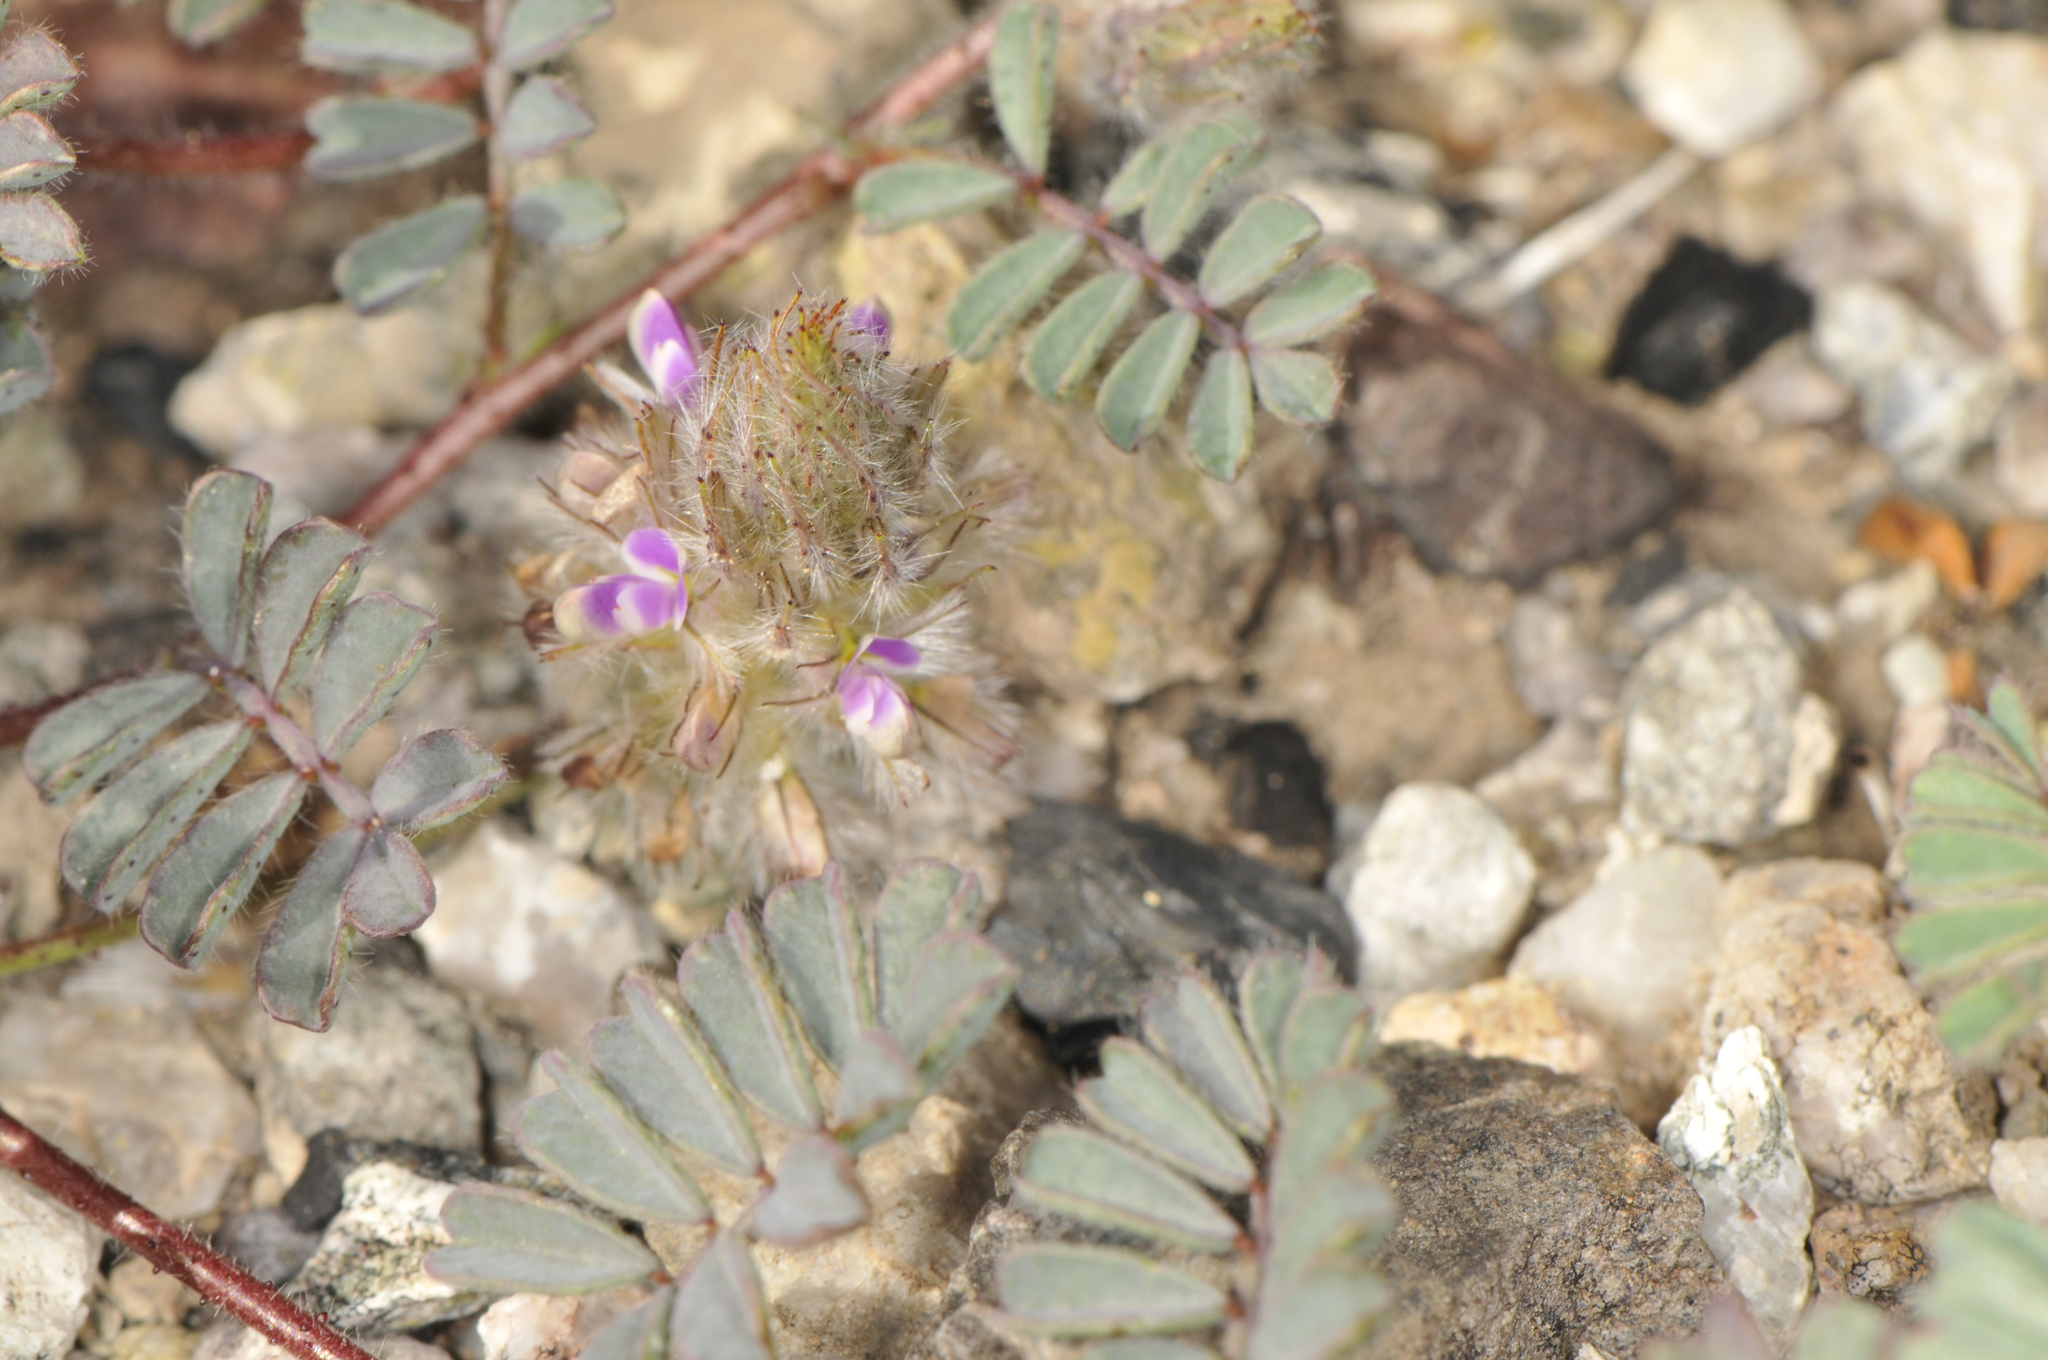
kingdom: Plantae
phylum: Tracheophyta
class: Magnoliopsida
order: Fabales
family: Fabaceae
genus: Dalea
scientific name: Dalea mollis
